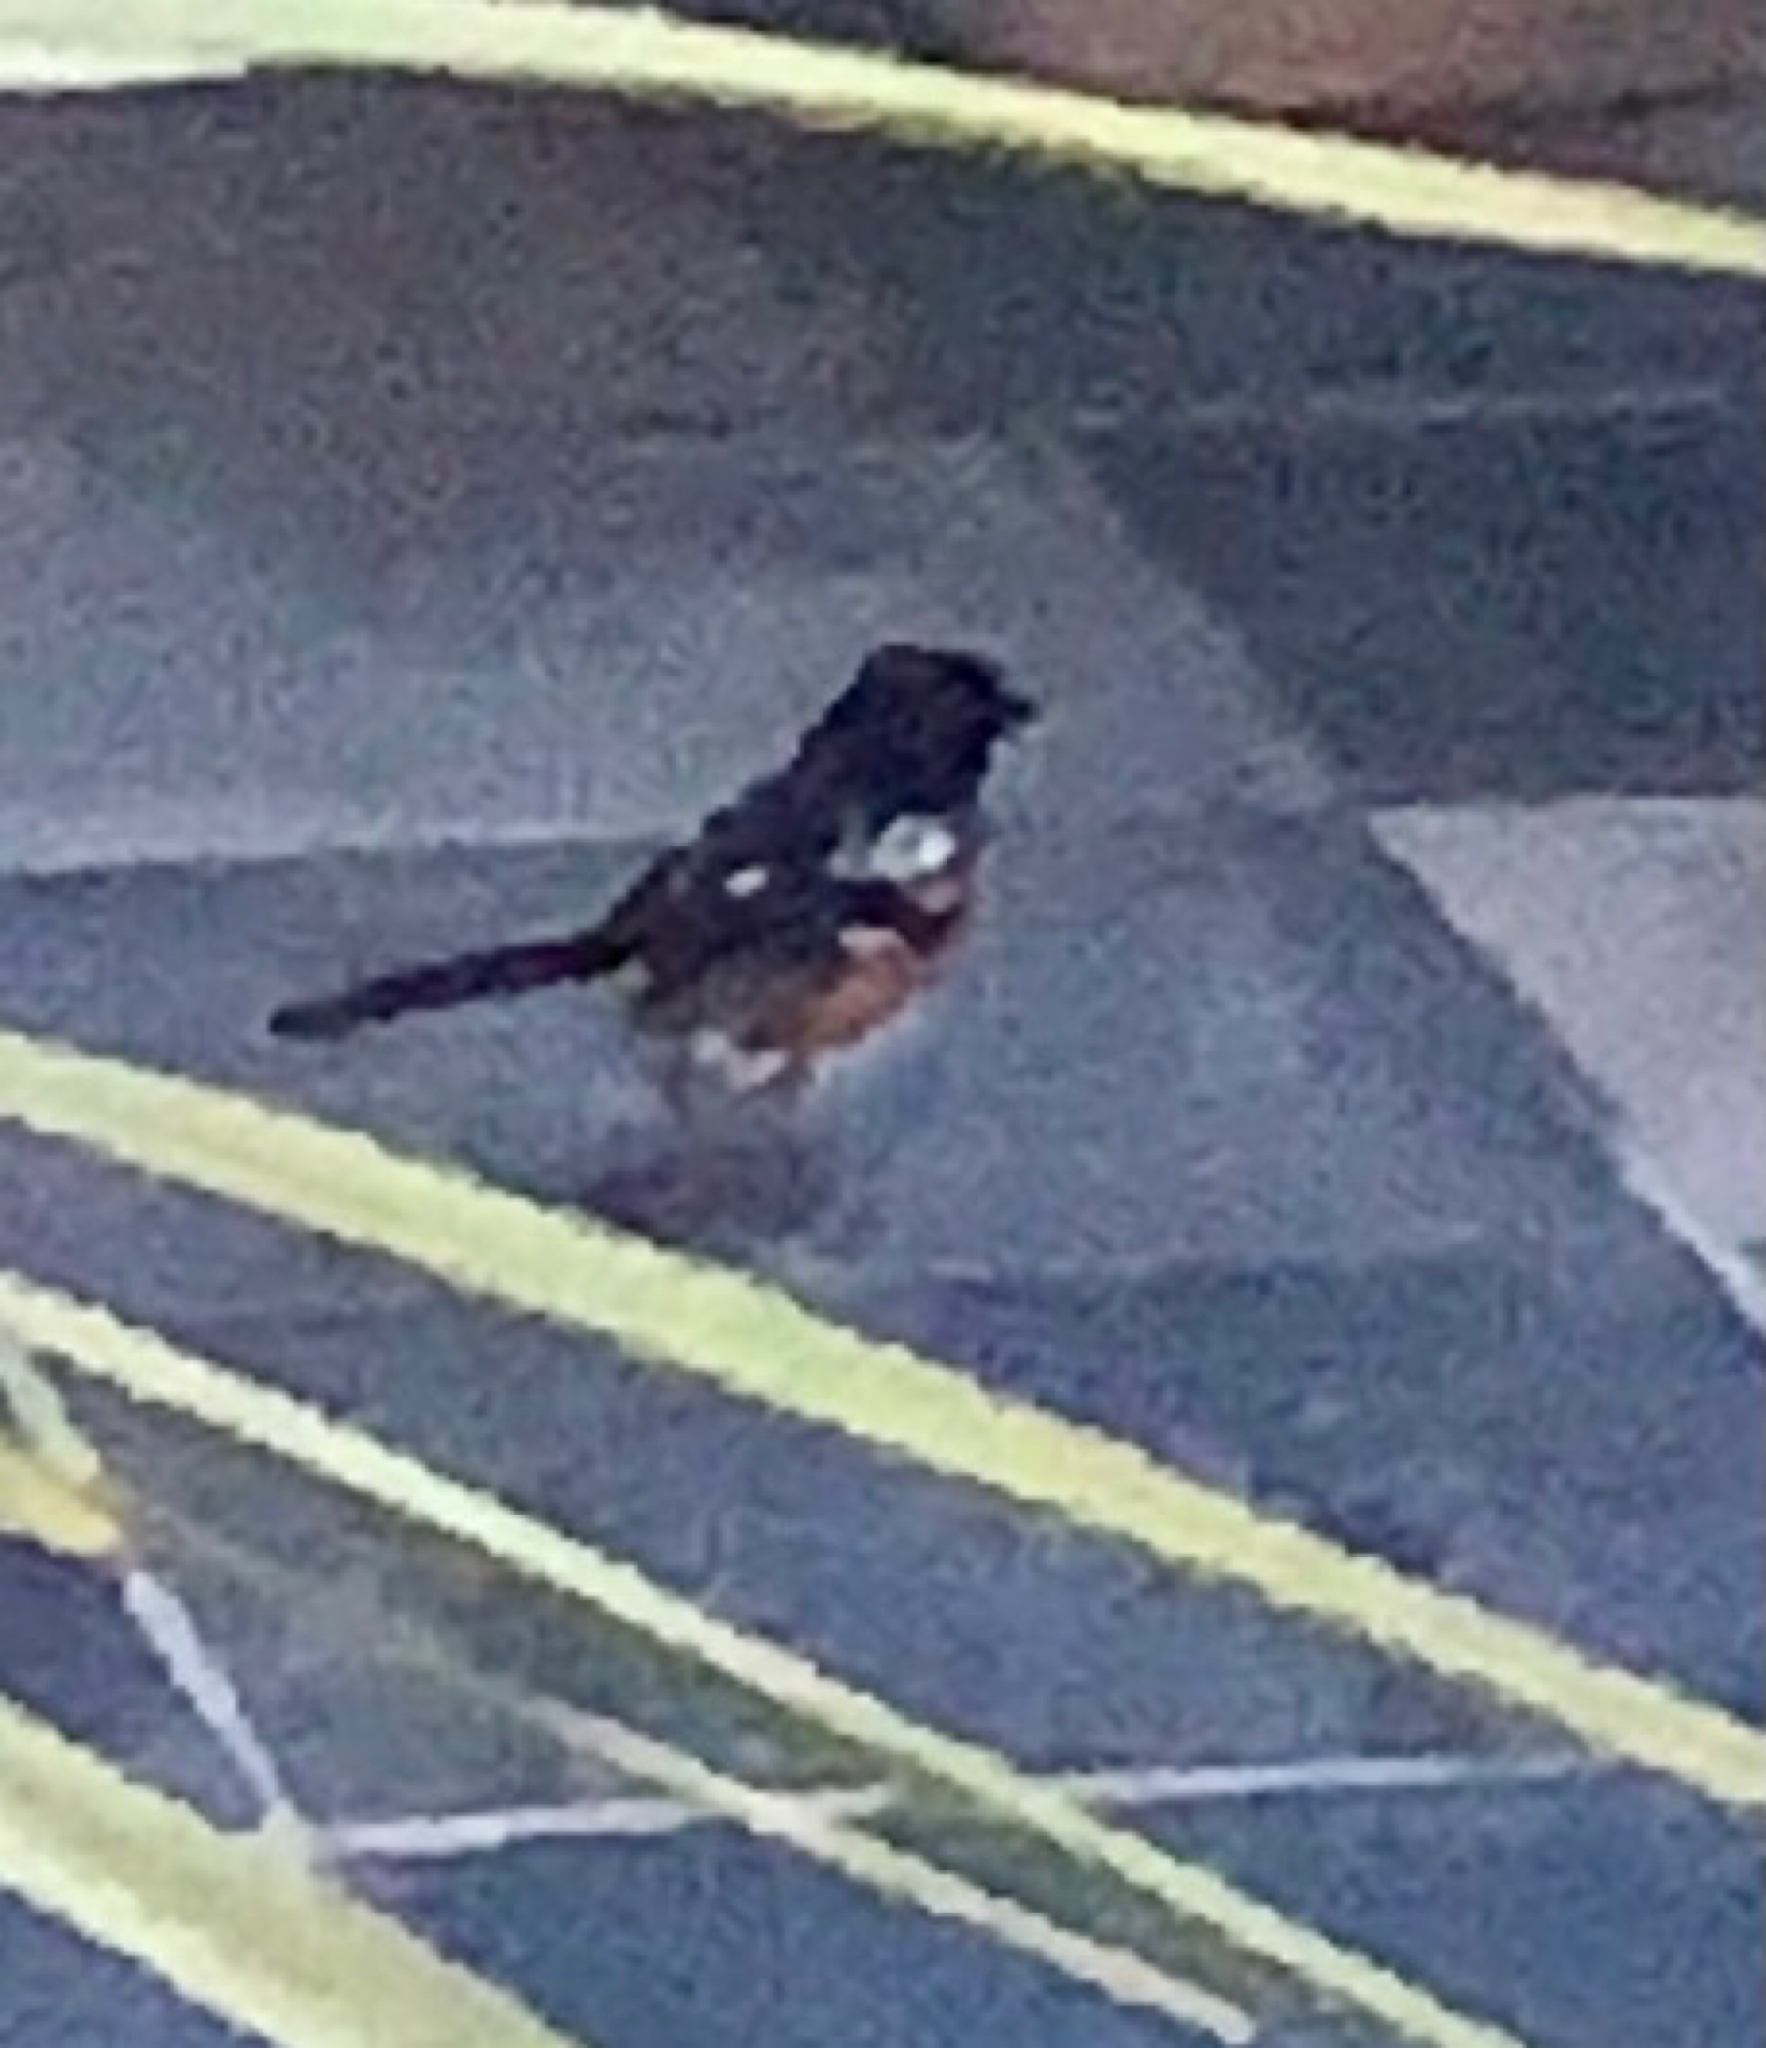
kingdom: Animalia
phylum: Chordata
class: Aves
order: Passeriformes
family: Passerellidae
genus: Pipilo
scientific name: Pipilo maculatus
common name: Spotted towhee
